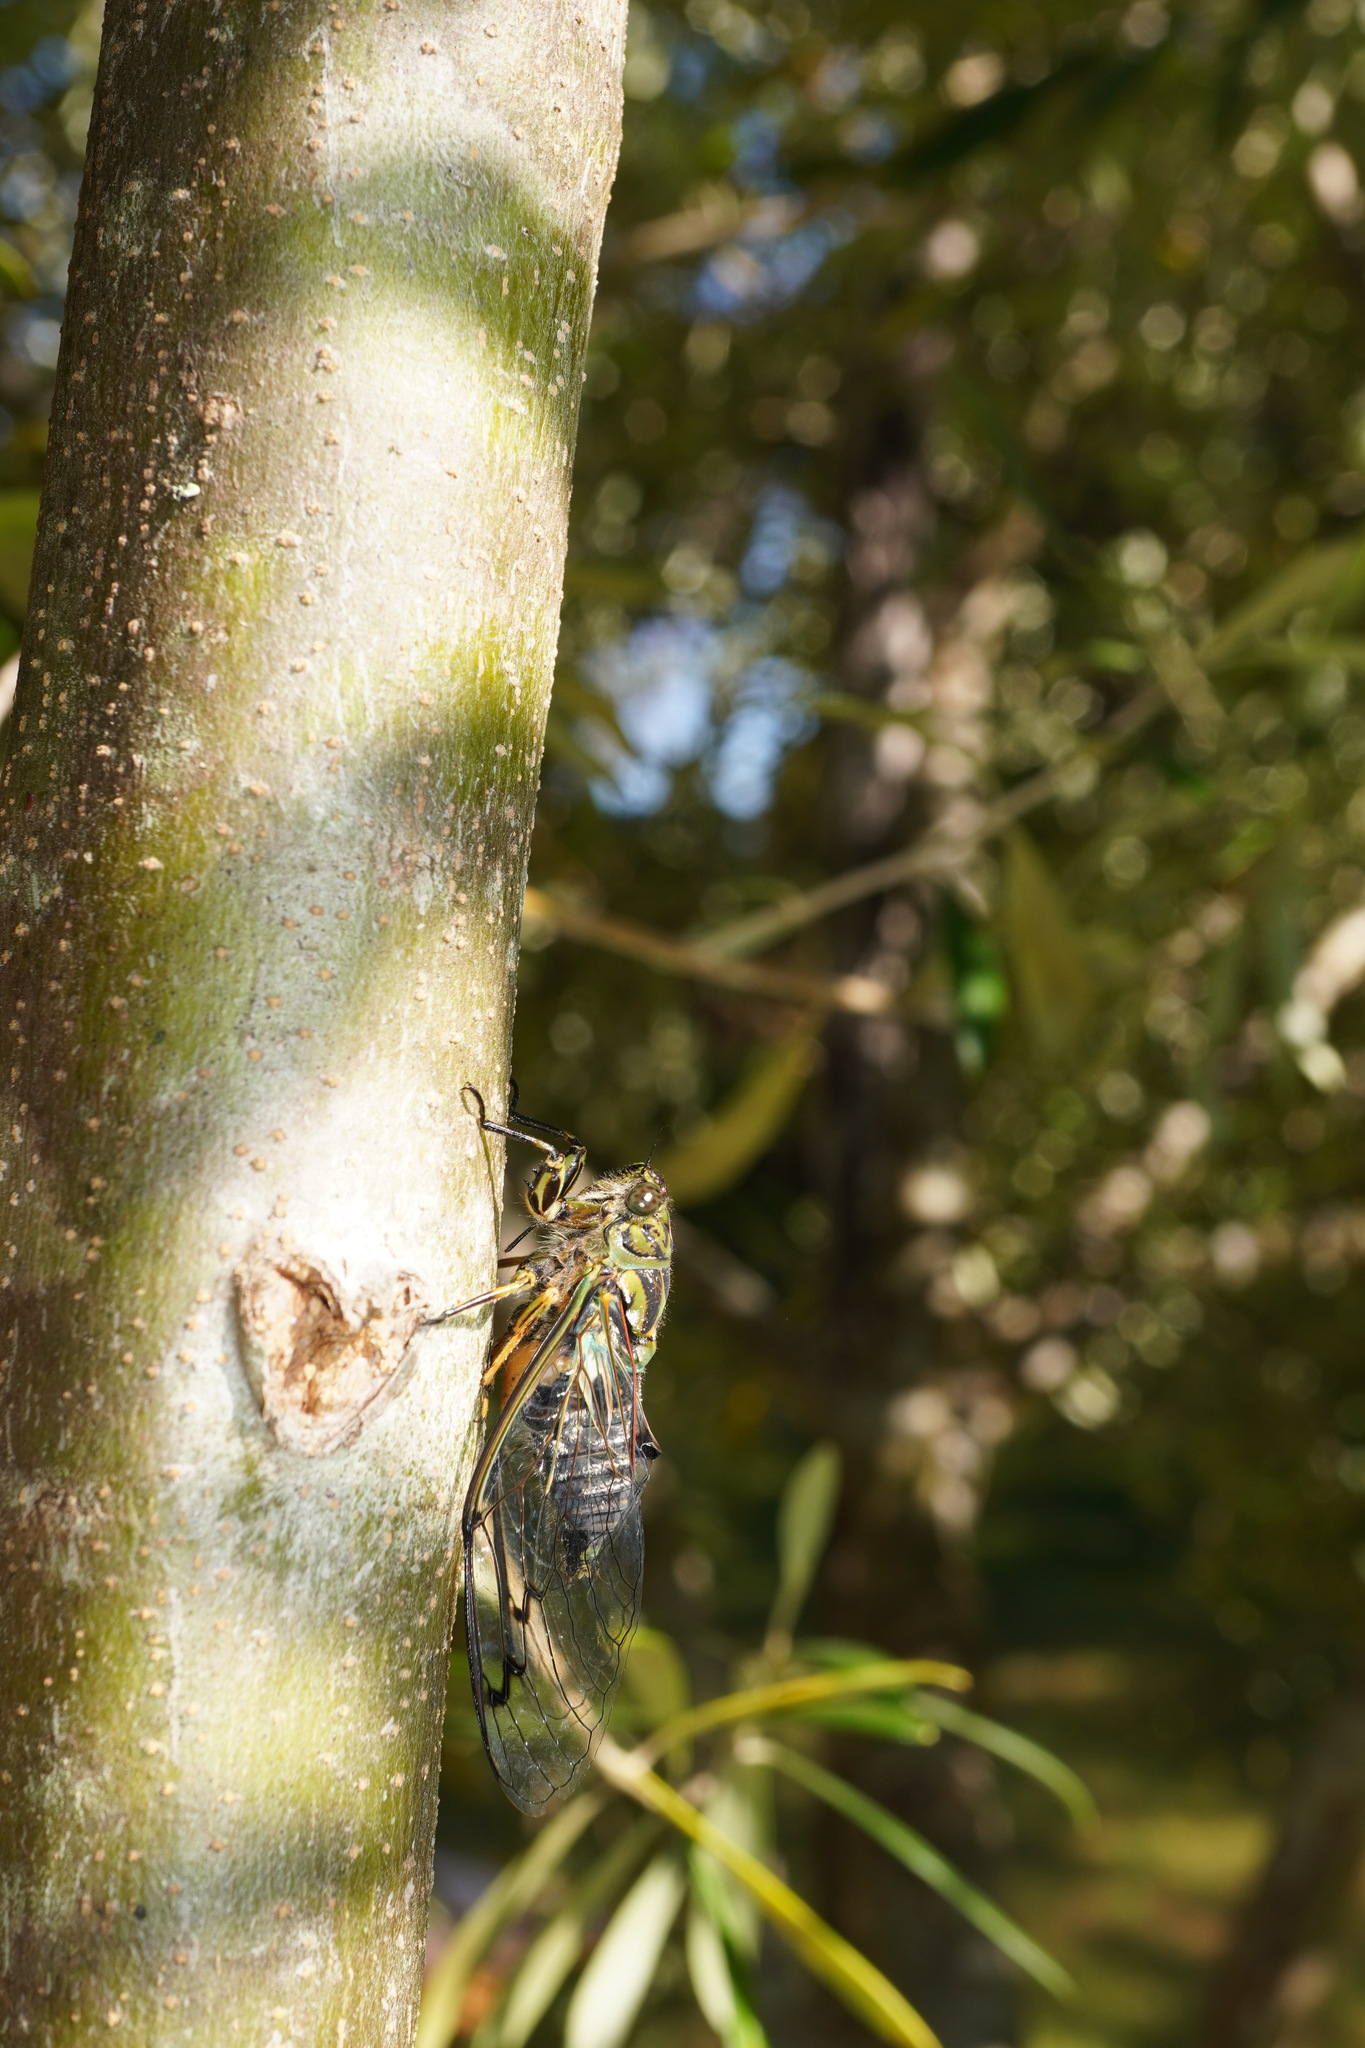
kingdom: Animalia
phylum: Arthropoda
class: Insecta
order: Hemiptera
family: Cicadidae
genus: Amphipsalta
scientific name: Amphipsalta zelandica
